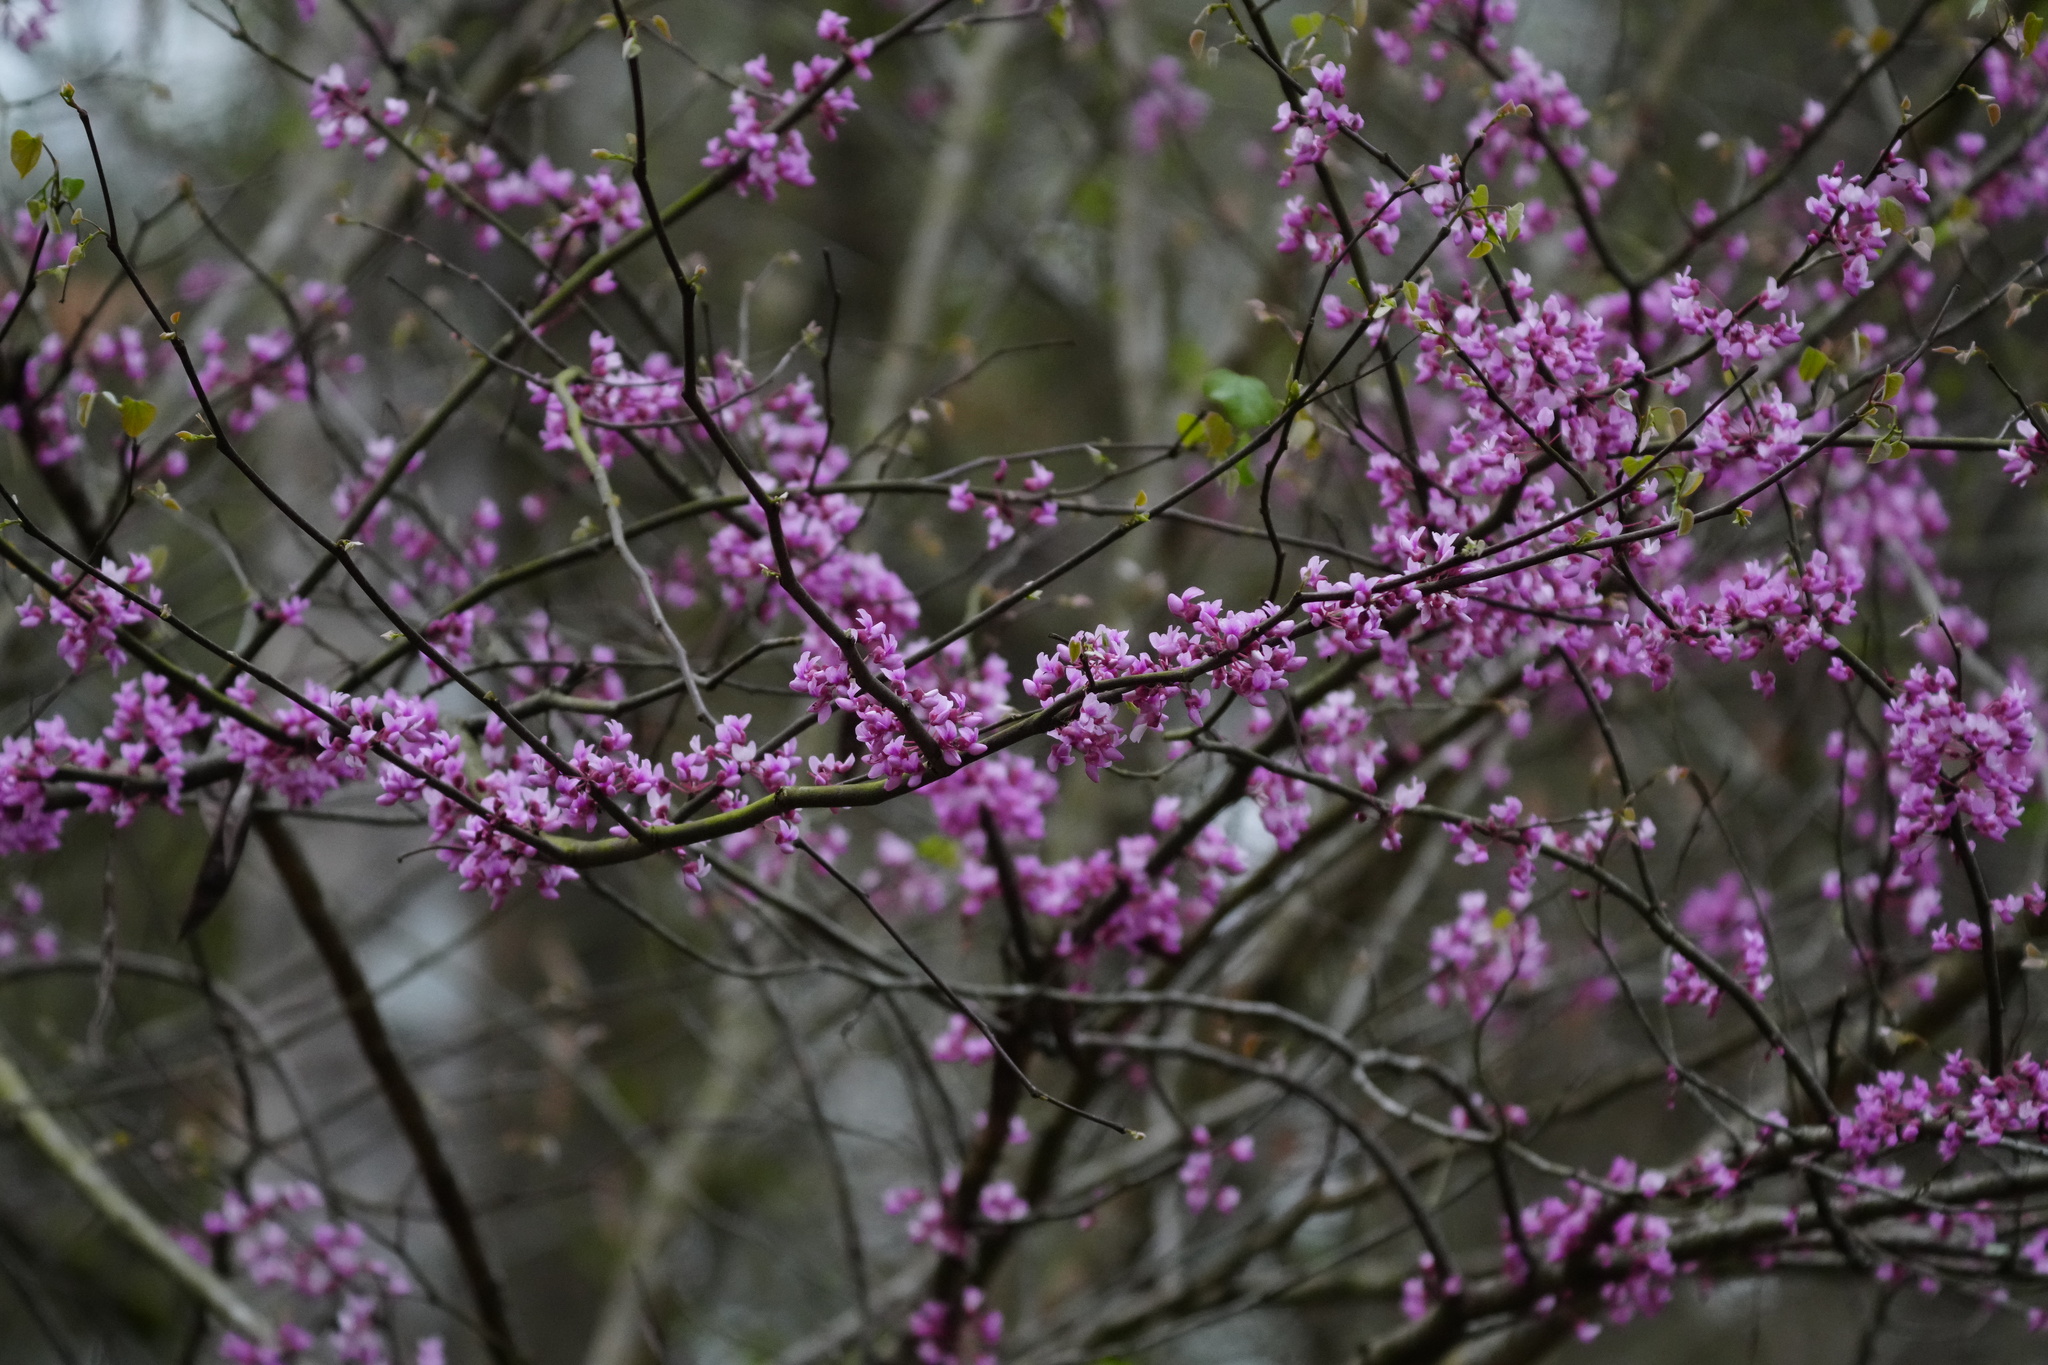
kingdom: Plantae
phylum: Tracheophyta
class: Magnoliopsida
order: Fabales
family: Fabaceae
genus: Cercis
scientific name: Cercis canadensis
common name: Eastern redbud
